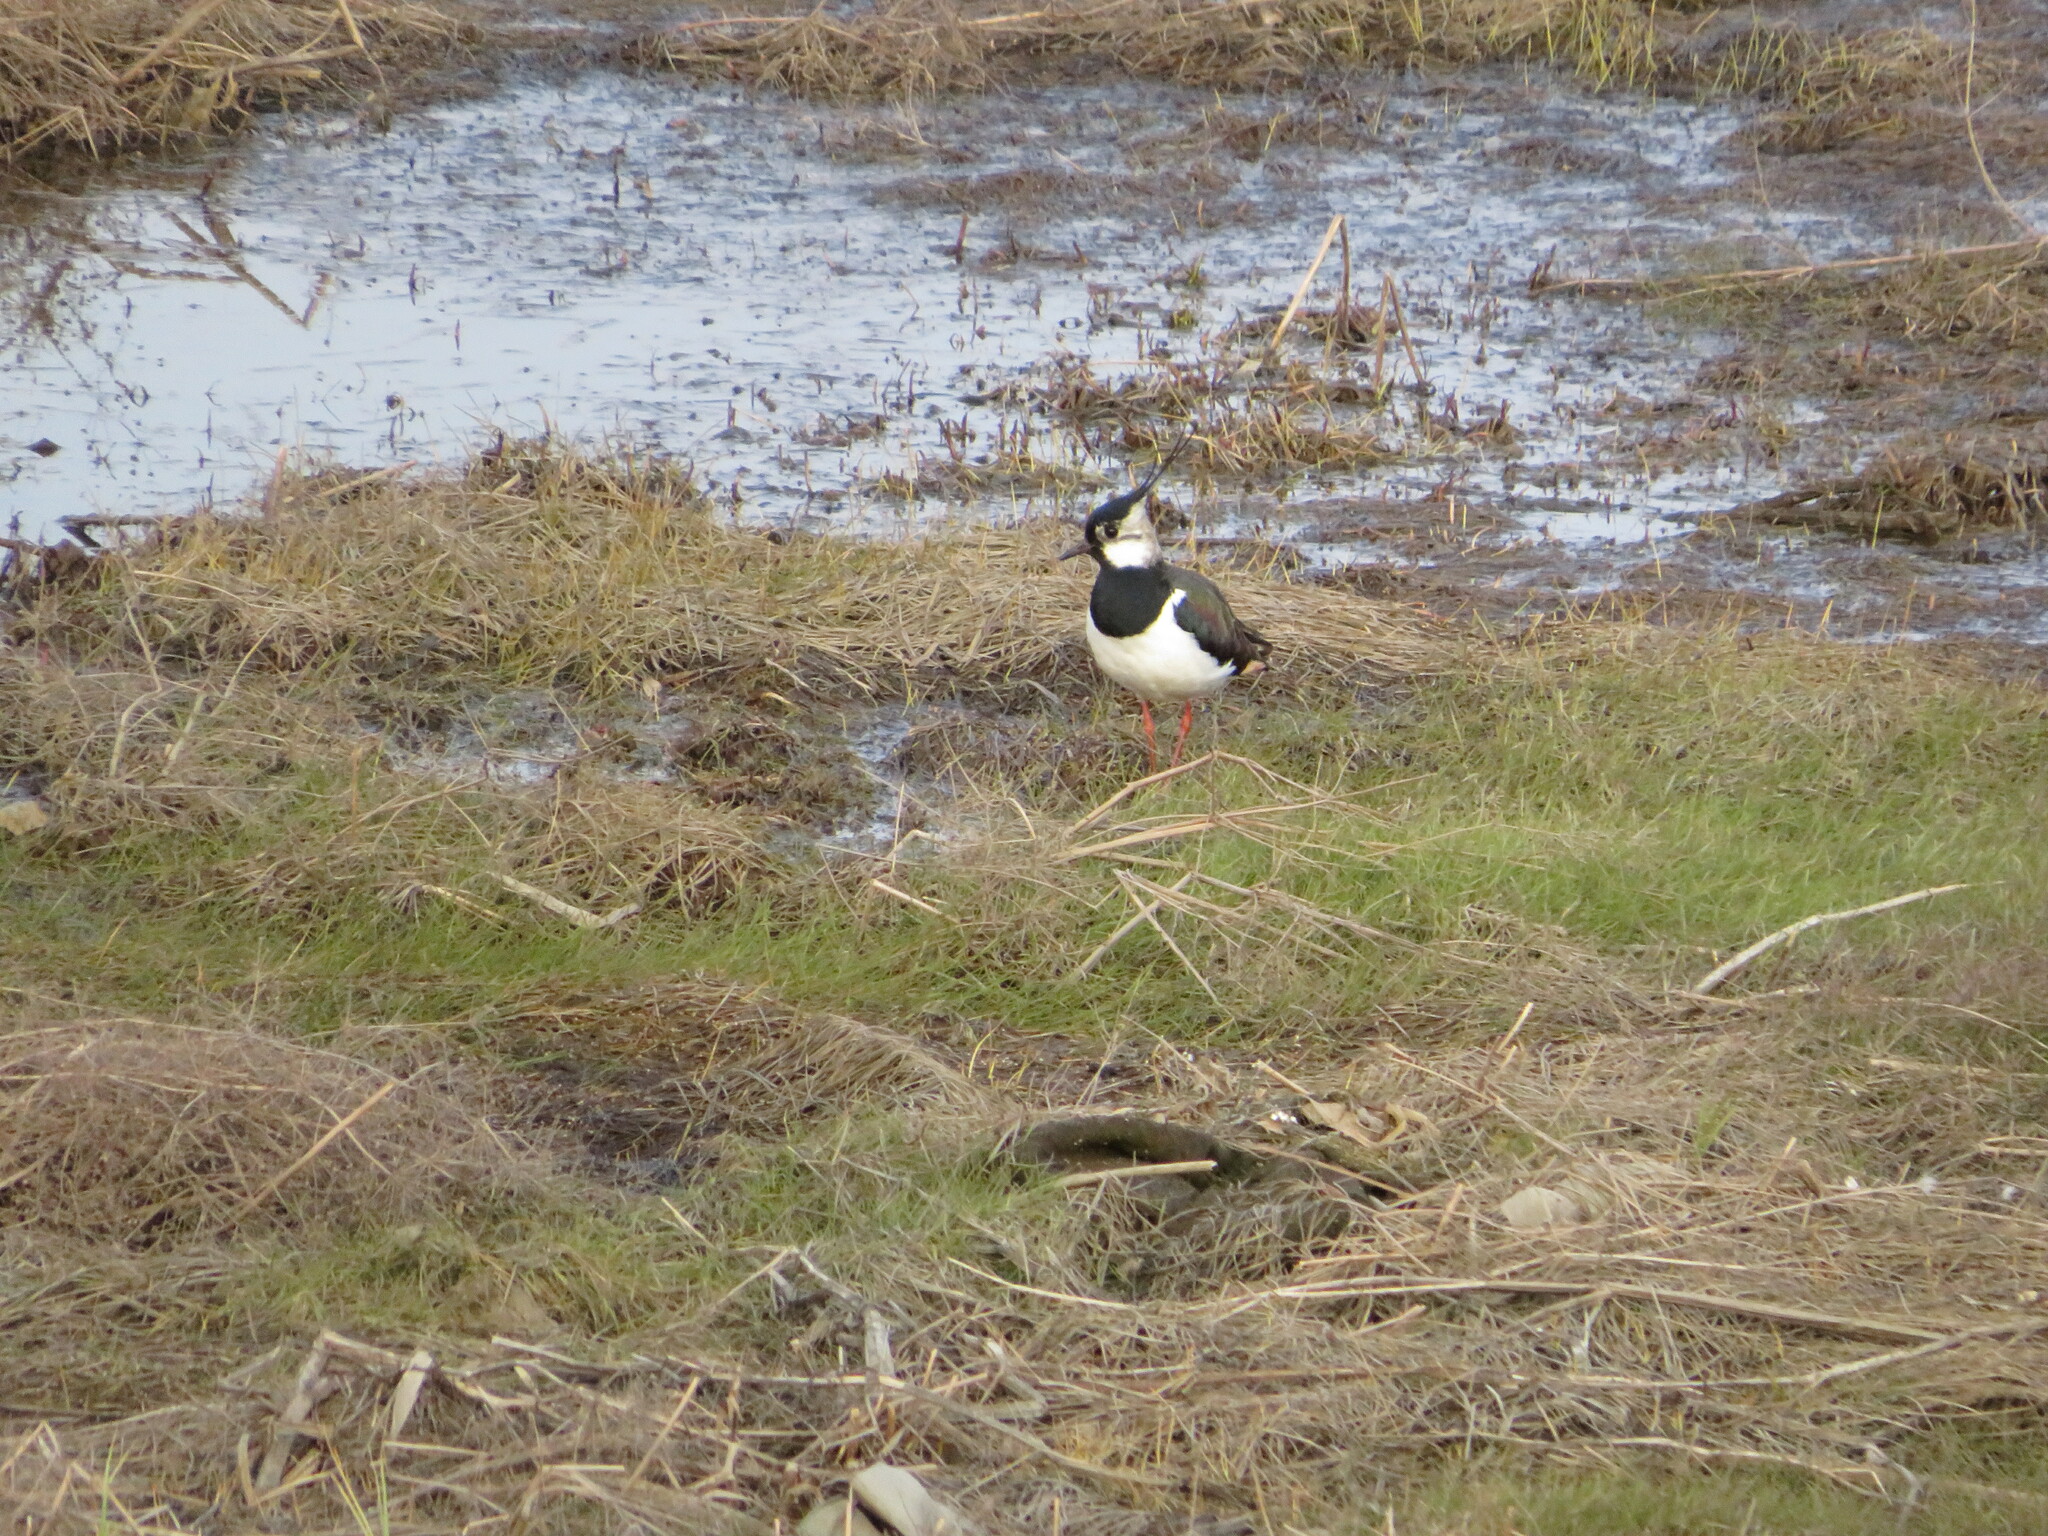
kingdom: Animalia
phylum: Chordata
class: Aves
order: Charadriiformes
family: Charadriidae
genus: Vanellus
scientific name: Vanellus vanellus
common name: Northern lapwing
